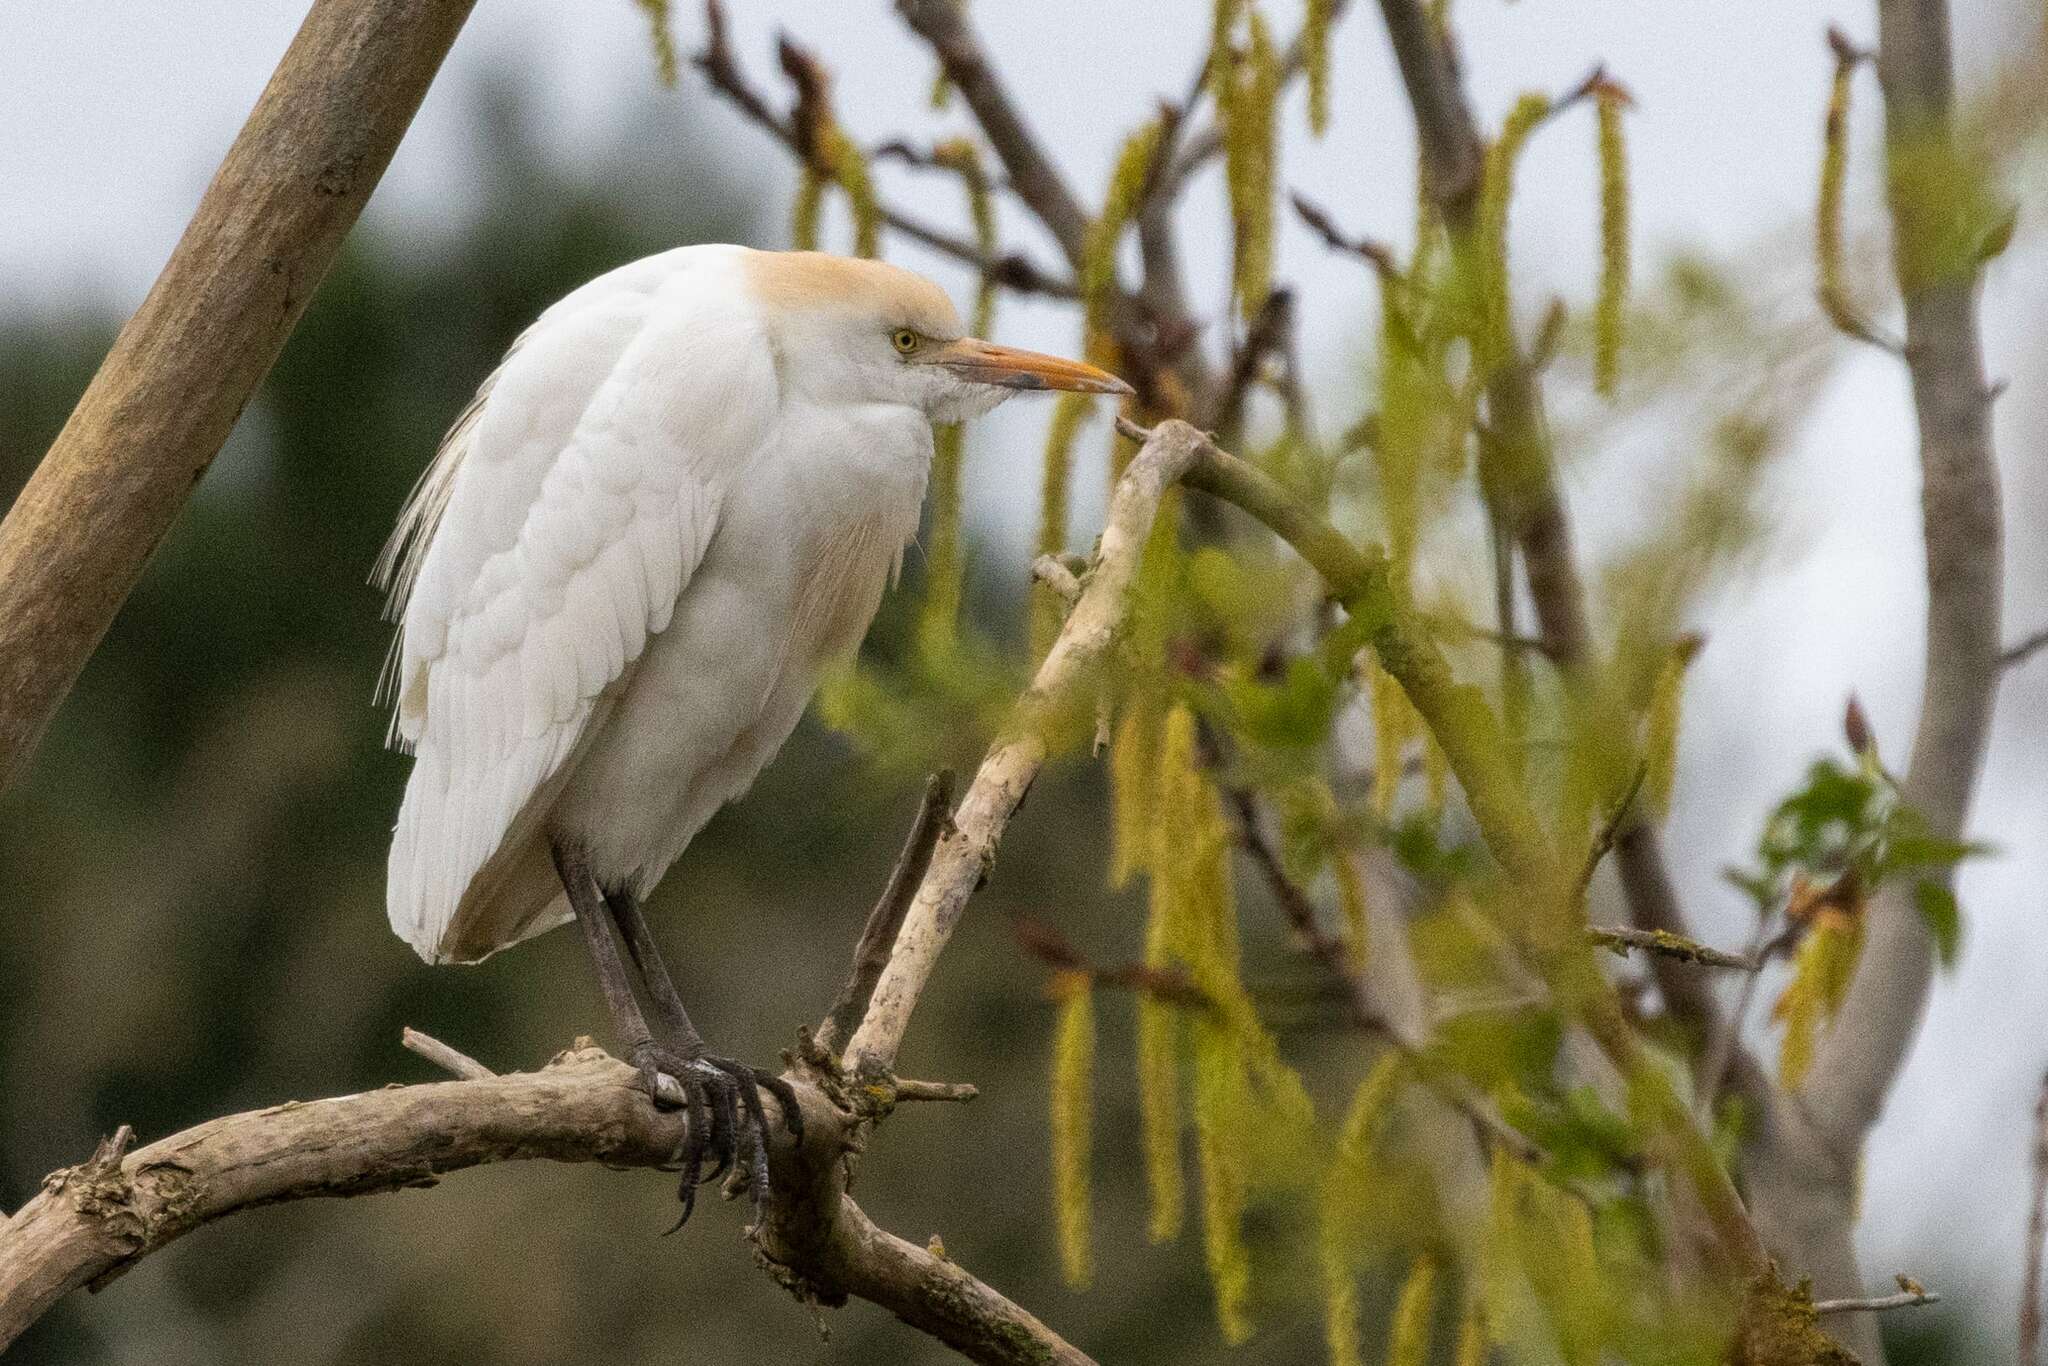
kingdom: Animalia
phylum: Chordata
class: Aves
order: Pelecaniformes
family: Ardeidae
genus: Bubulcus
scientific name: Bubulcus ibis
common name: Cattle egret
